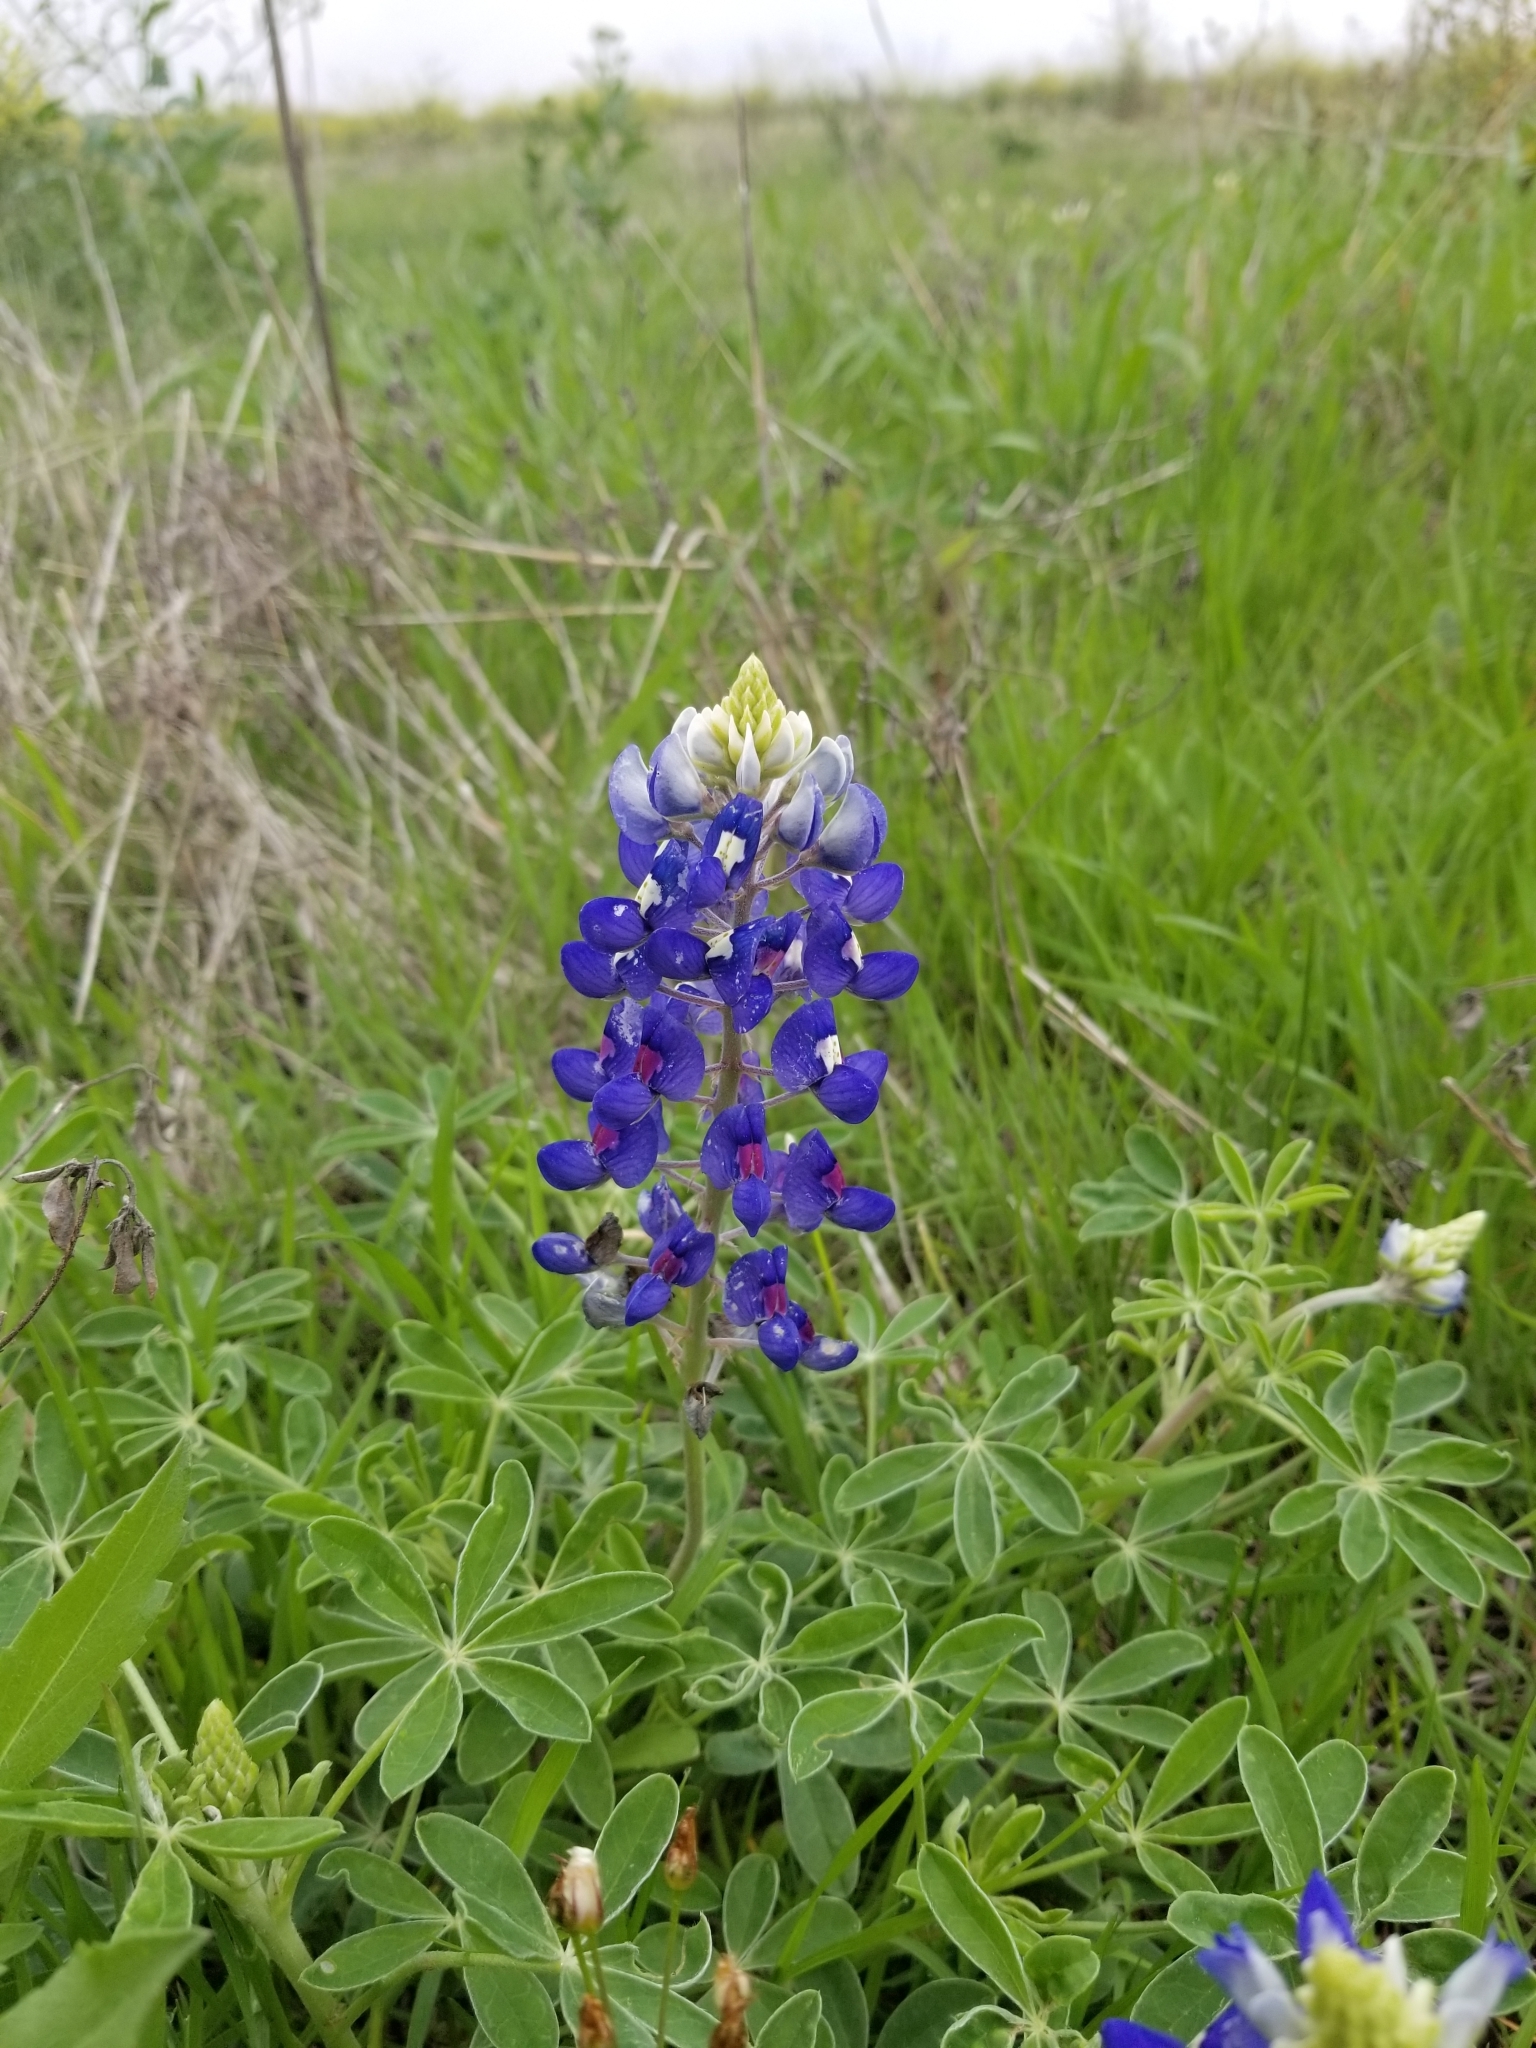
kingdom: Plantae
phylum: Tracheophyta
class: Magnoliopsida
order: Fabales
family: Fabaceae
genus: Lupinus
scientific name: Lupinus texensis
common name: Texas bluebonnet
